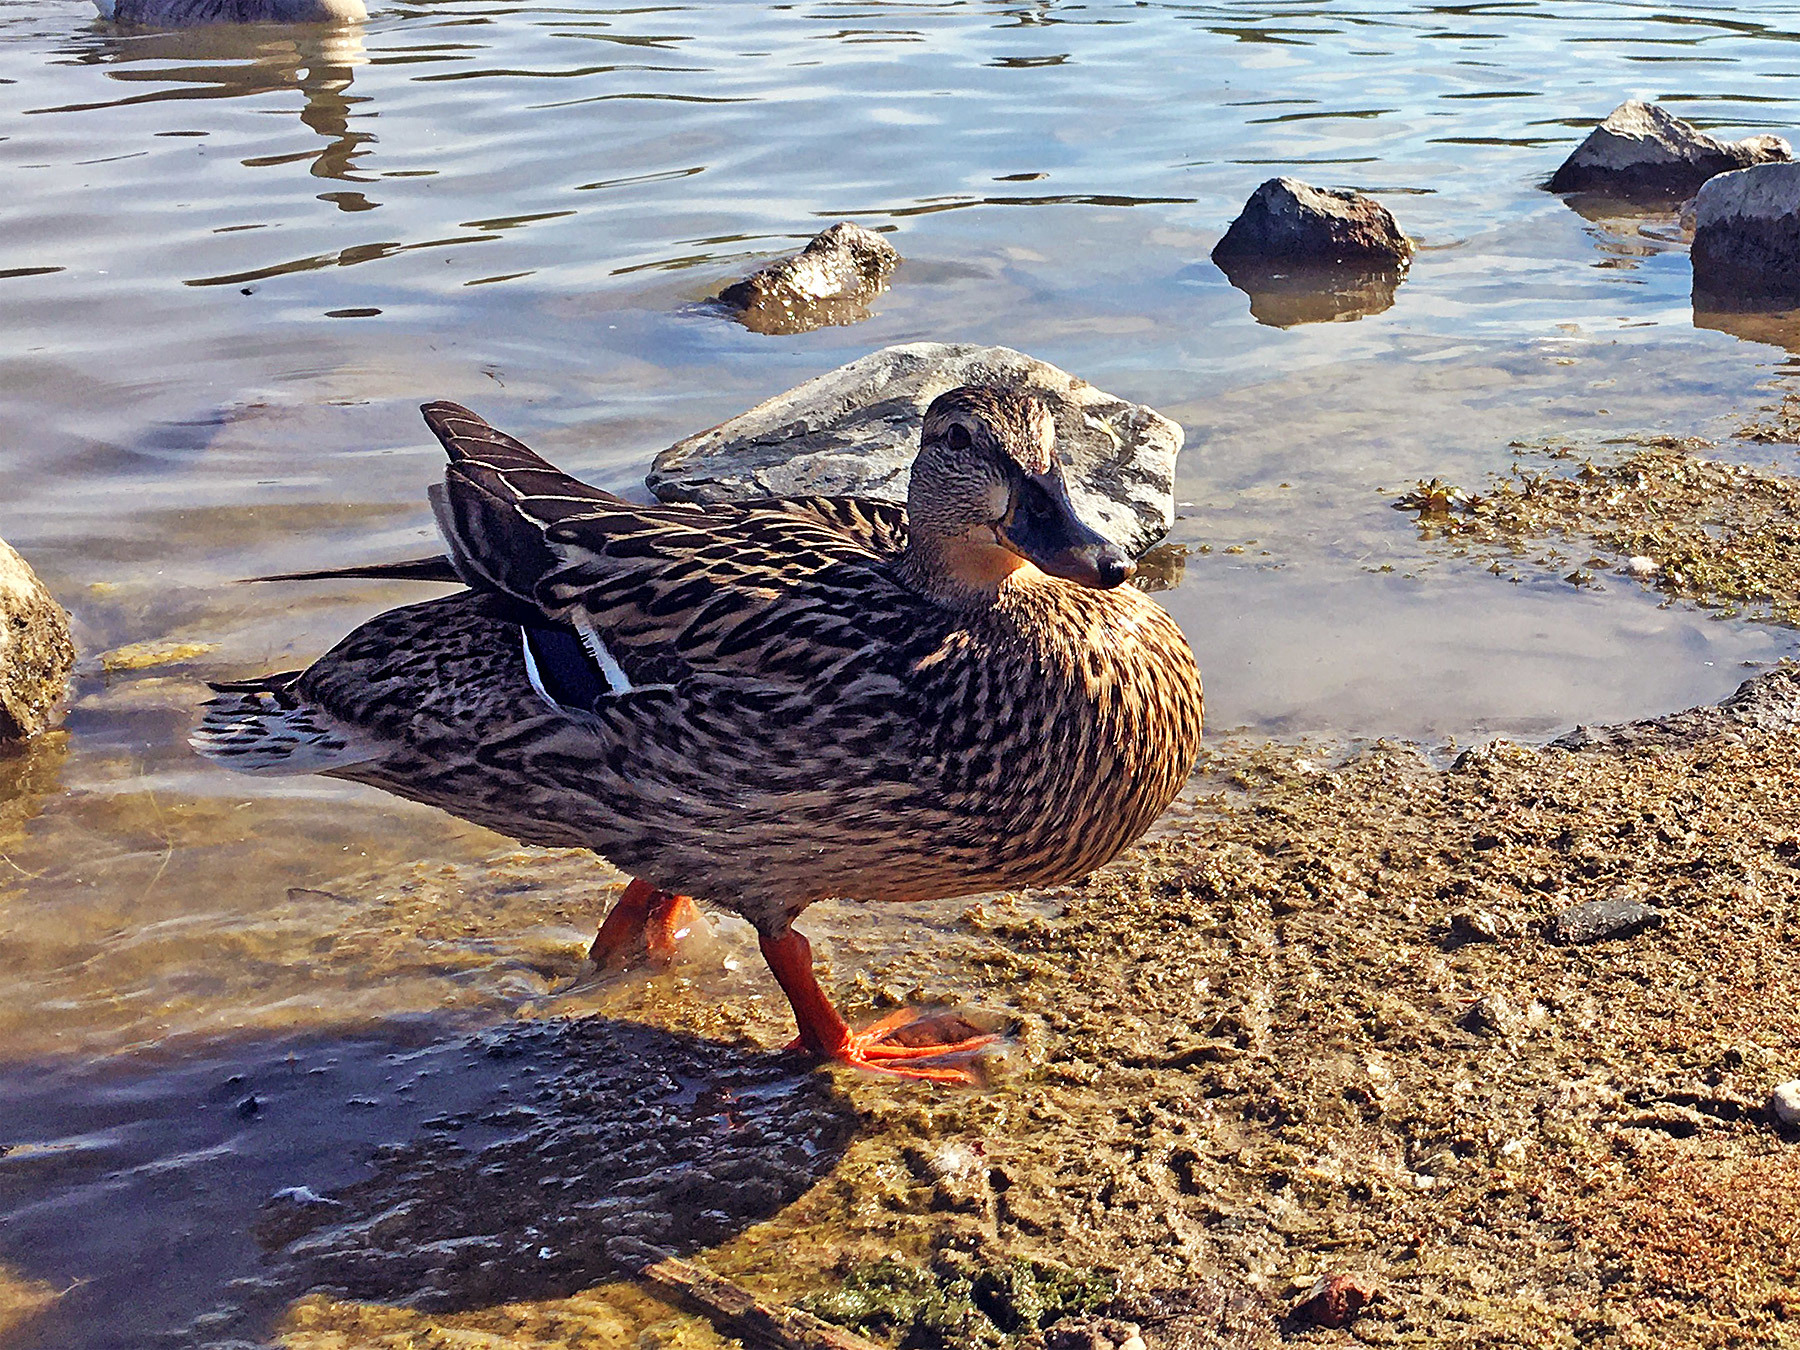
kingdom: Animalia
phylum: Chordata
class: Aves
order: Anseriformes
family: Anatidae
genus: Anas
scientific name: Anas platyrhynchos
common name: Mallard
